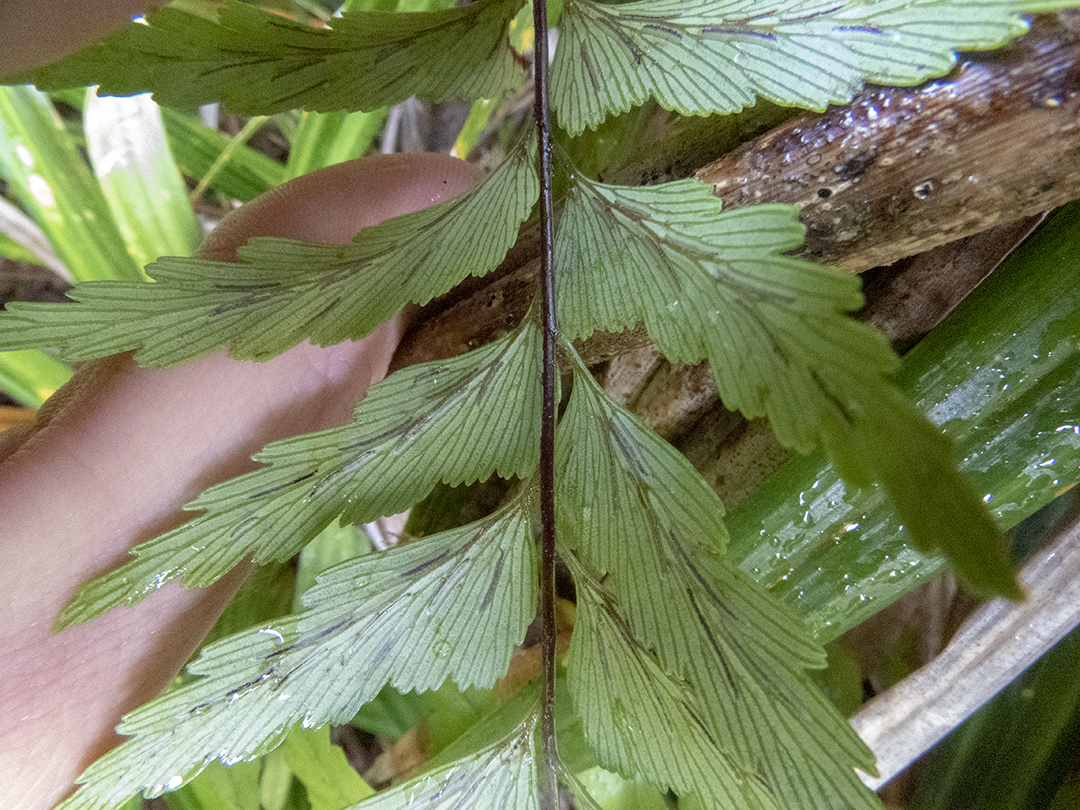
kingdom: Plantae
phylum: Tracheophyta
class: Polypodiopsida
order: Polypodiales
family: Aspleniaceae
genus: Asplenium
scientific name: Asplenium polyodon
